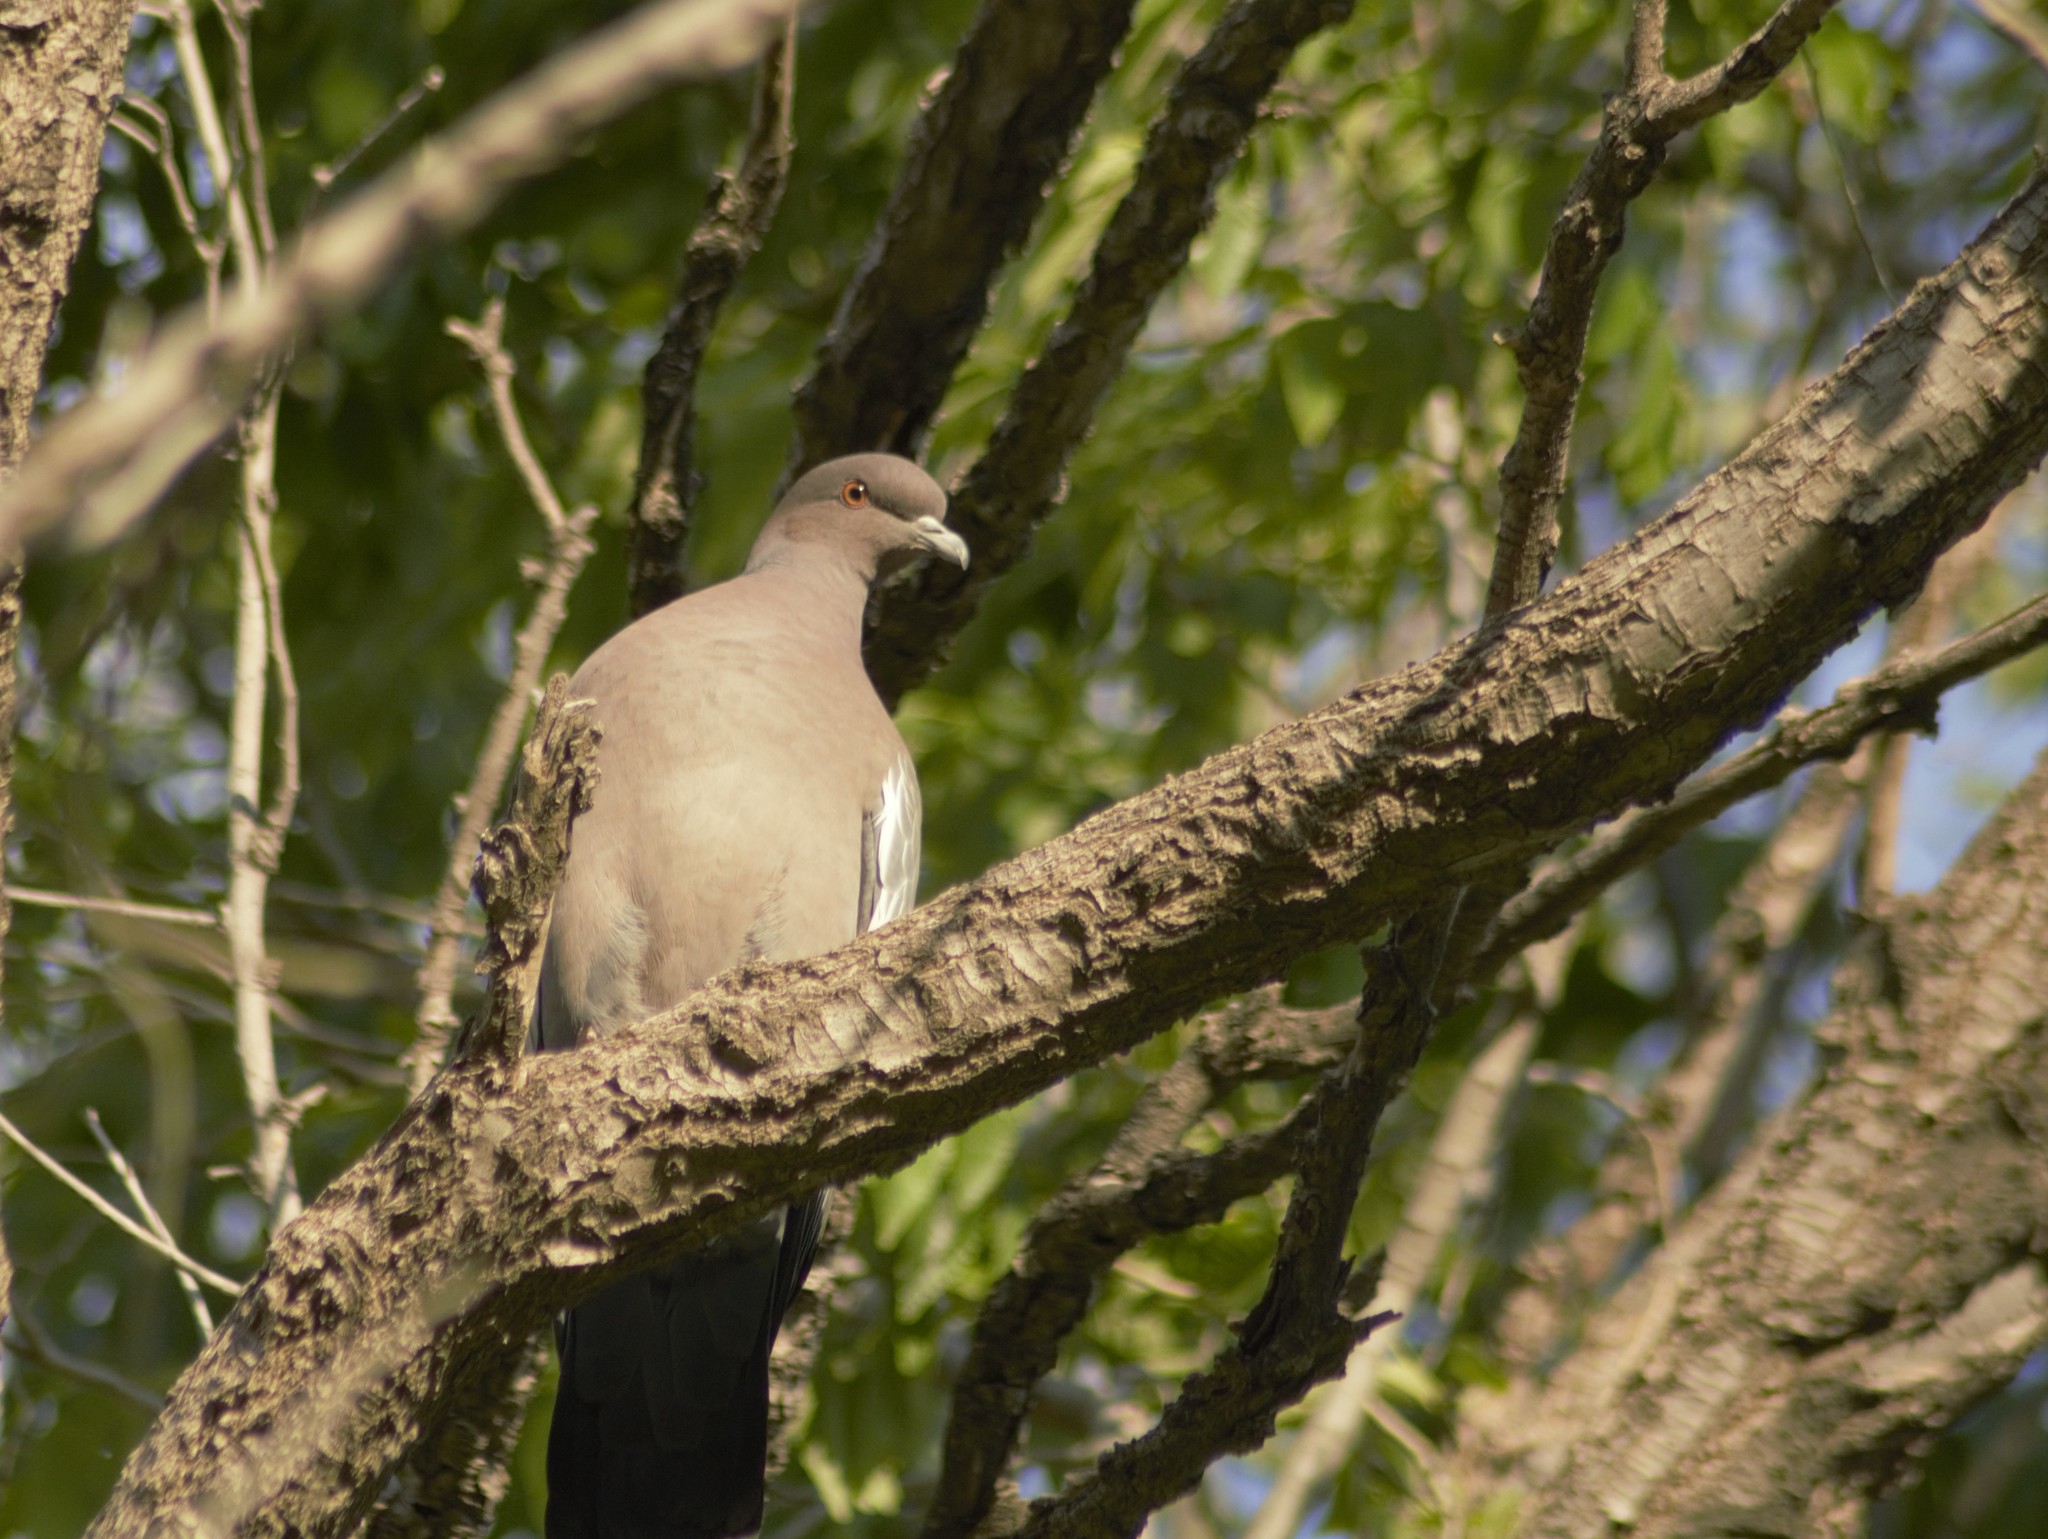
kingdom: Animalia
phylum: Chordata
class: Aves
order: Columbiformes
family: Columbidae
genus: Patagioenas
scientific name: Patagioenas picazuro
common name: Picazuro pigeon
